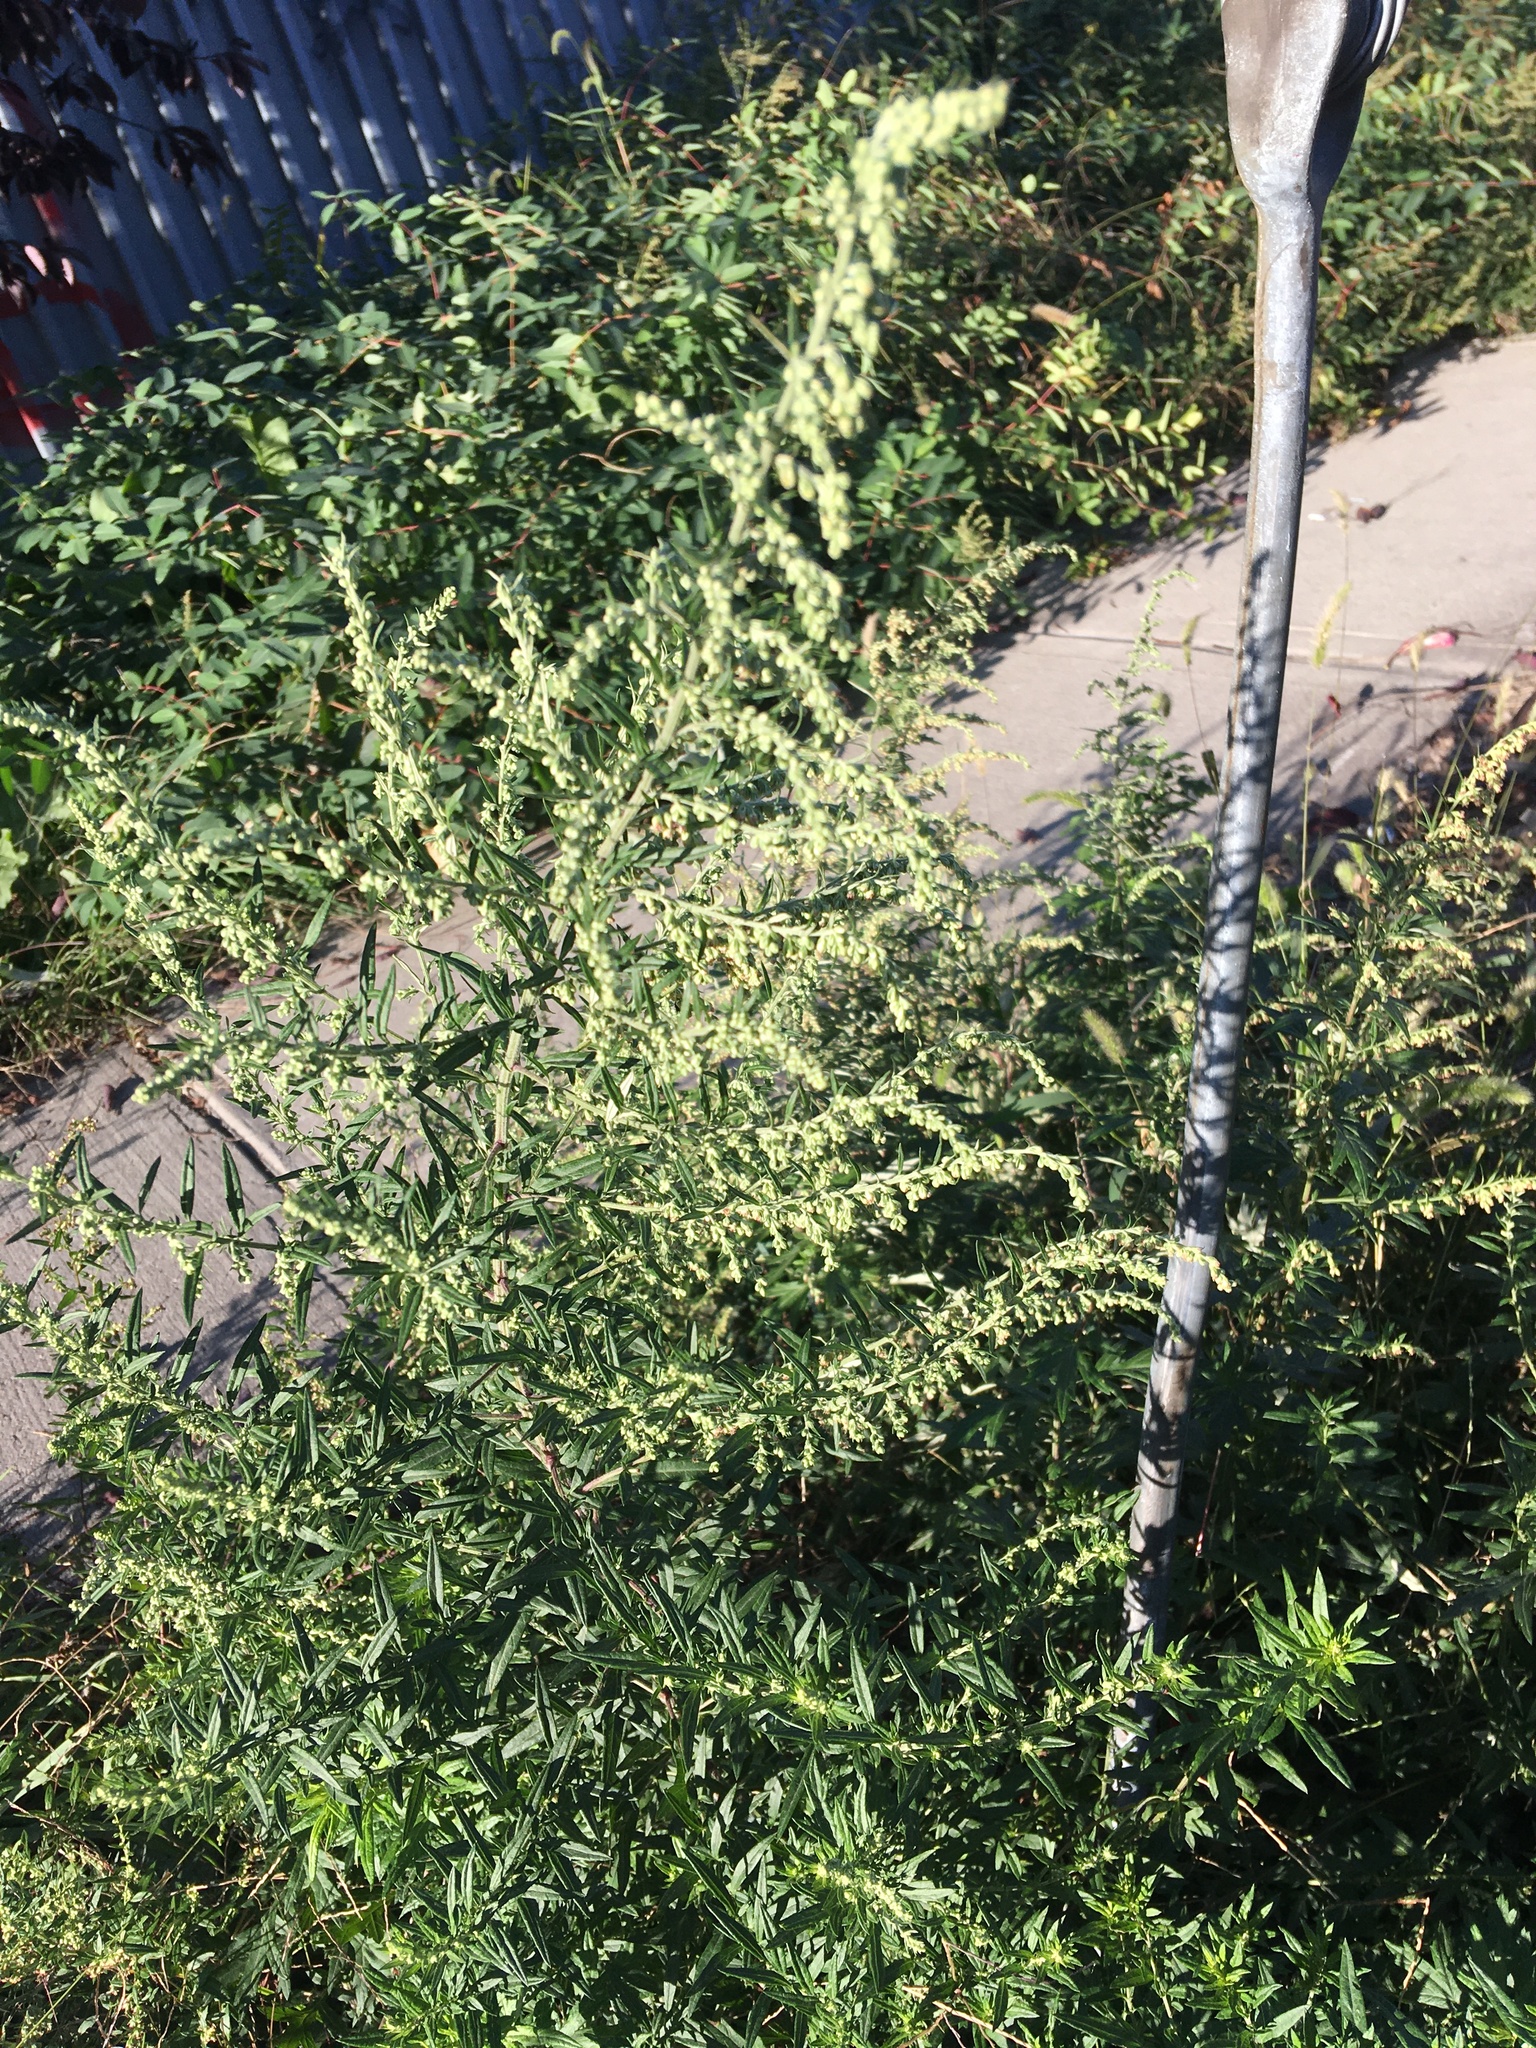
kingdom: Plantae
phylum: Tracheophyta
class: Magnoliopsida
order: Asterales
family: Asteraceae
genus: Artemisia
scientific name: Artemisia vulgaris
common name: Mugwort
